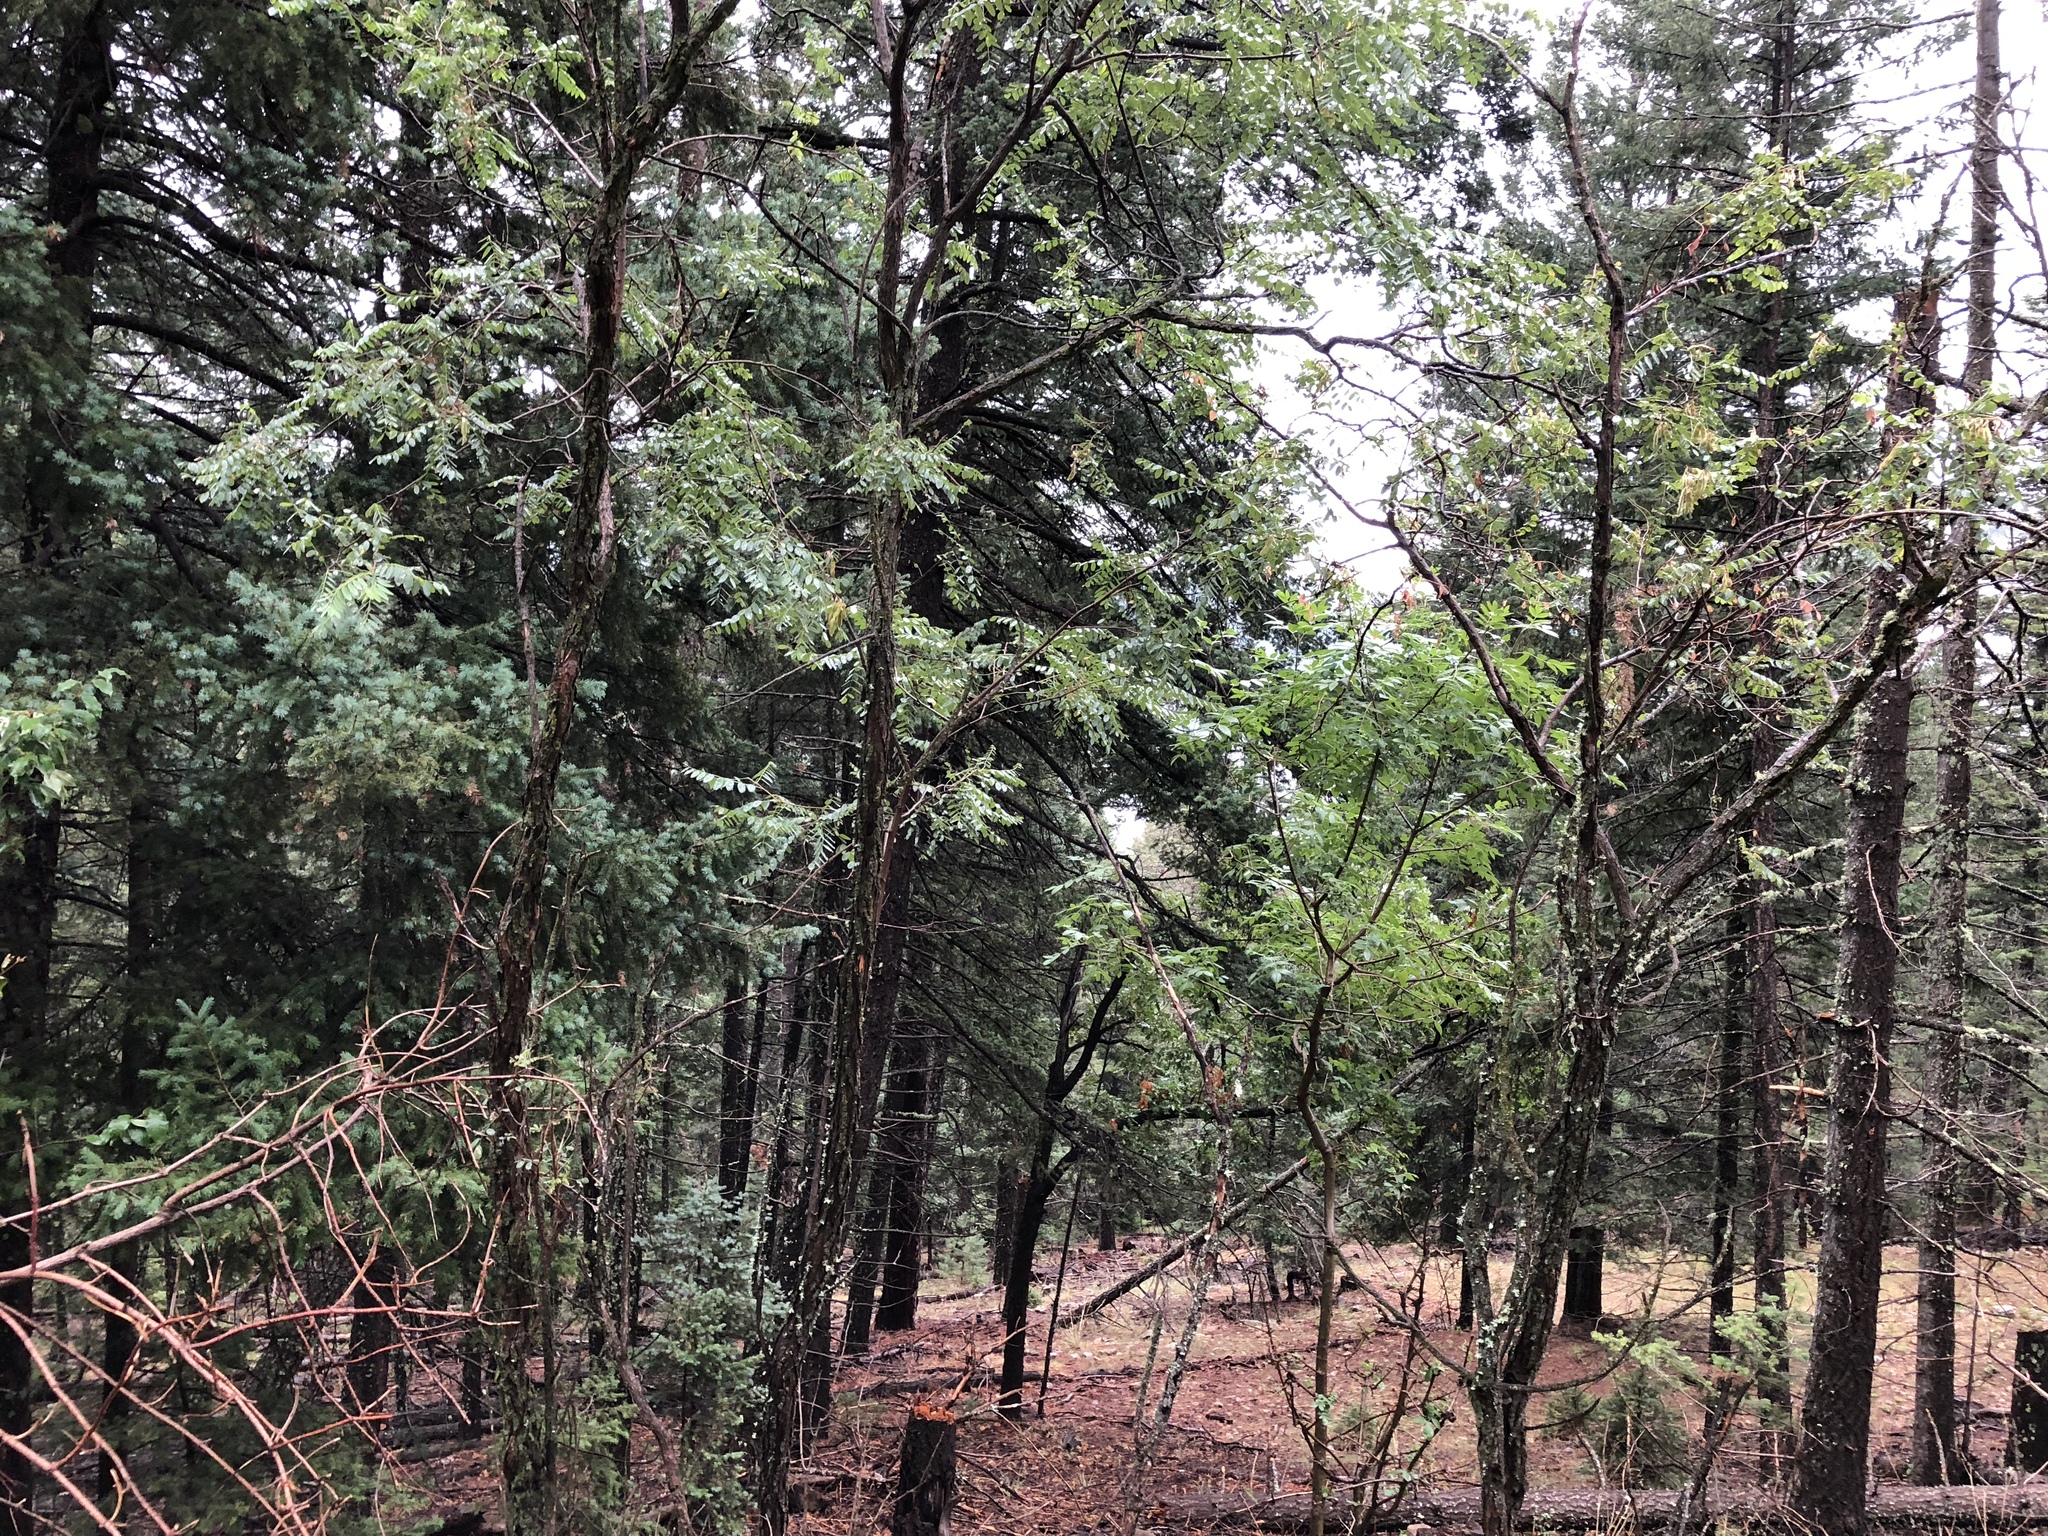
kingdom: Plantae
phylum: Tracheophyta
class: Magnoliopsida
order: Fabales
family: Fabaceae
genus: Robinia
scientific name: Robinia neomexicana
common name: New mexico locust
